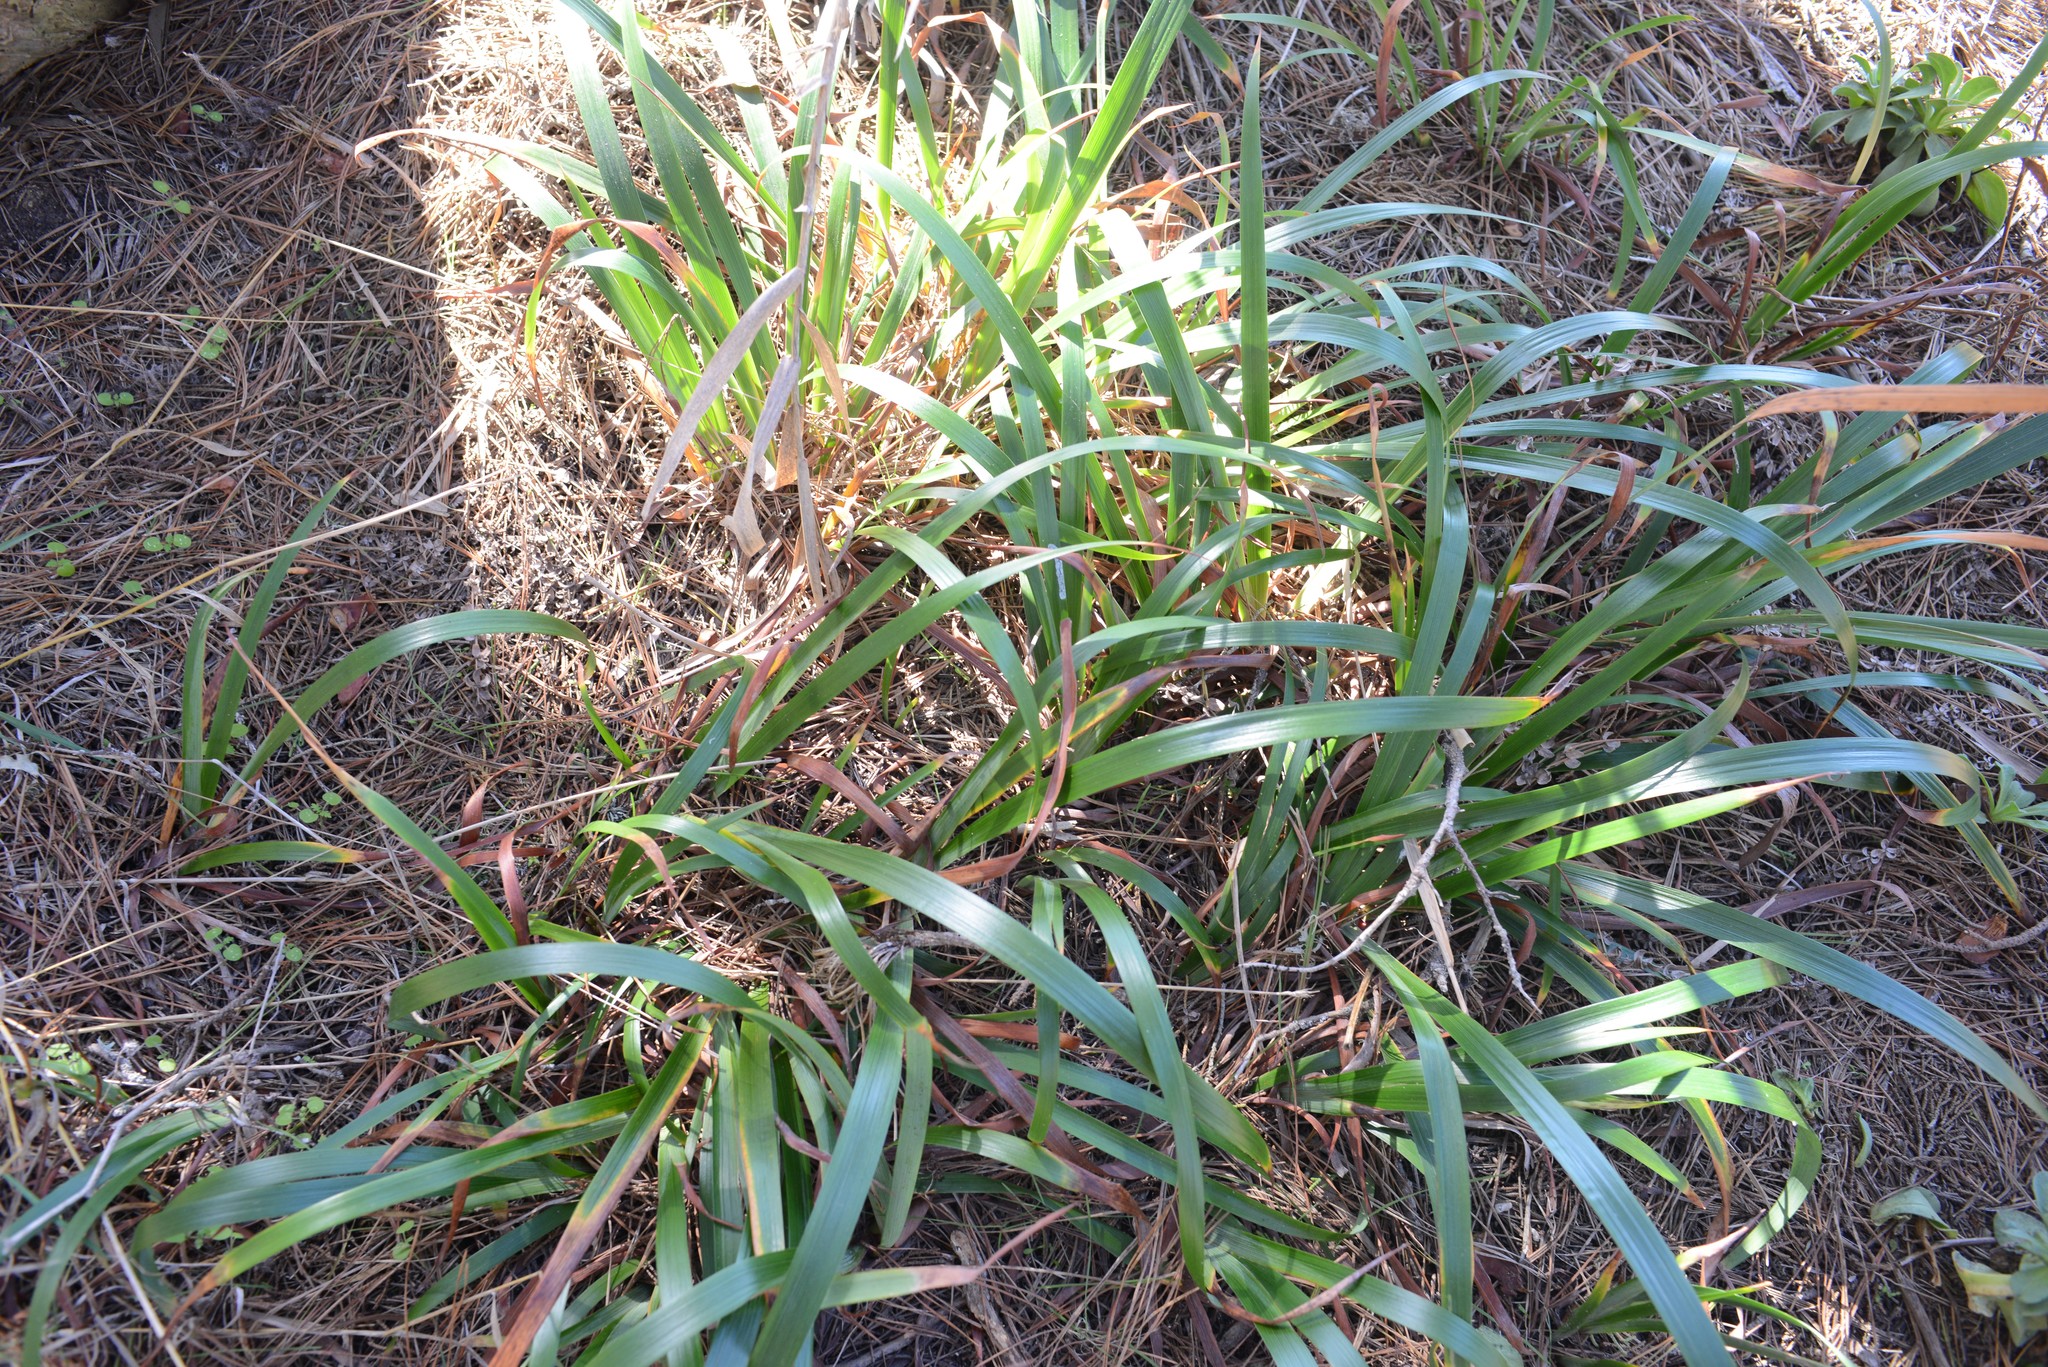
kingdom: Plantae
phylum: Tracheophyta
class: Liliopsida
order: Asparagales
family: Iridaceae
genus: Iris
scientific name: Iris douglasiana
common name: Marin iris
